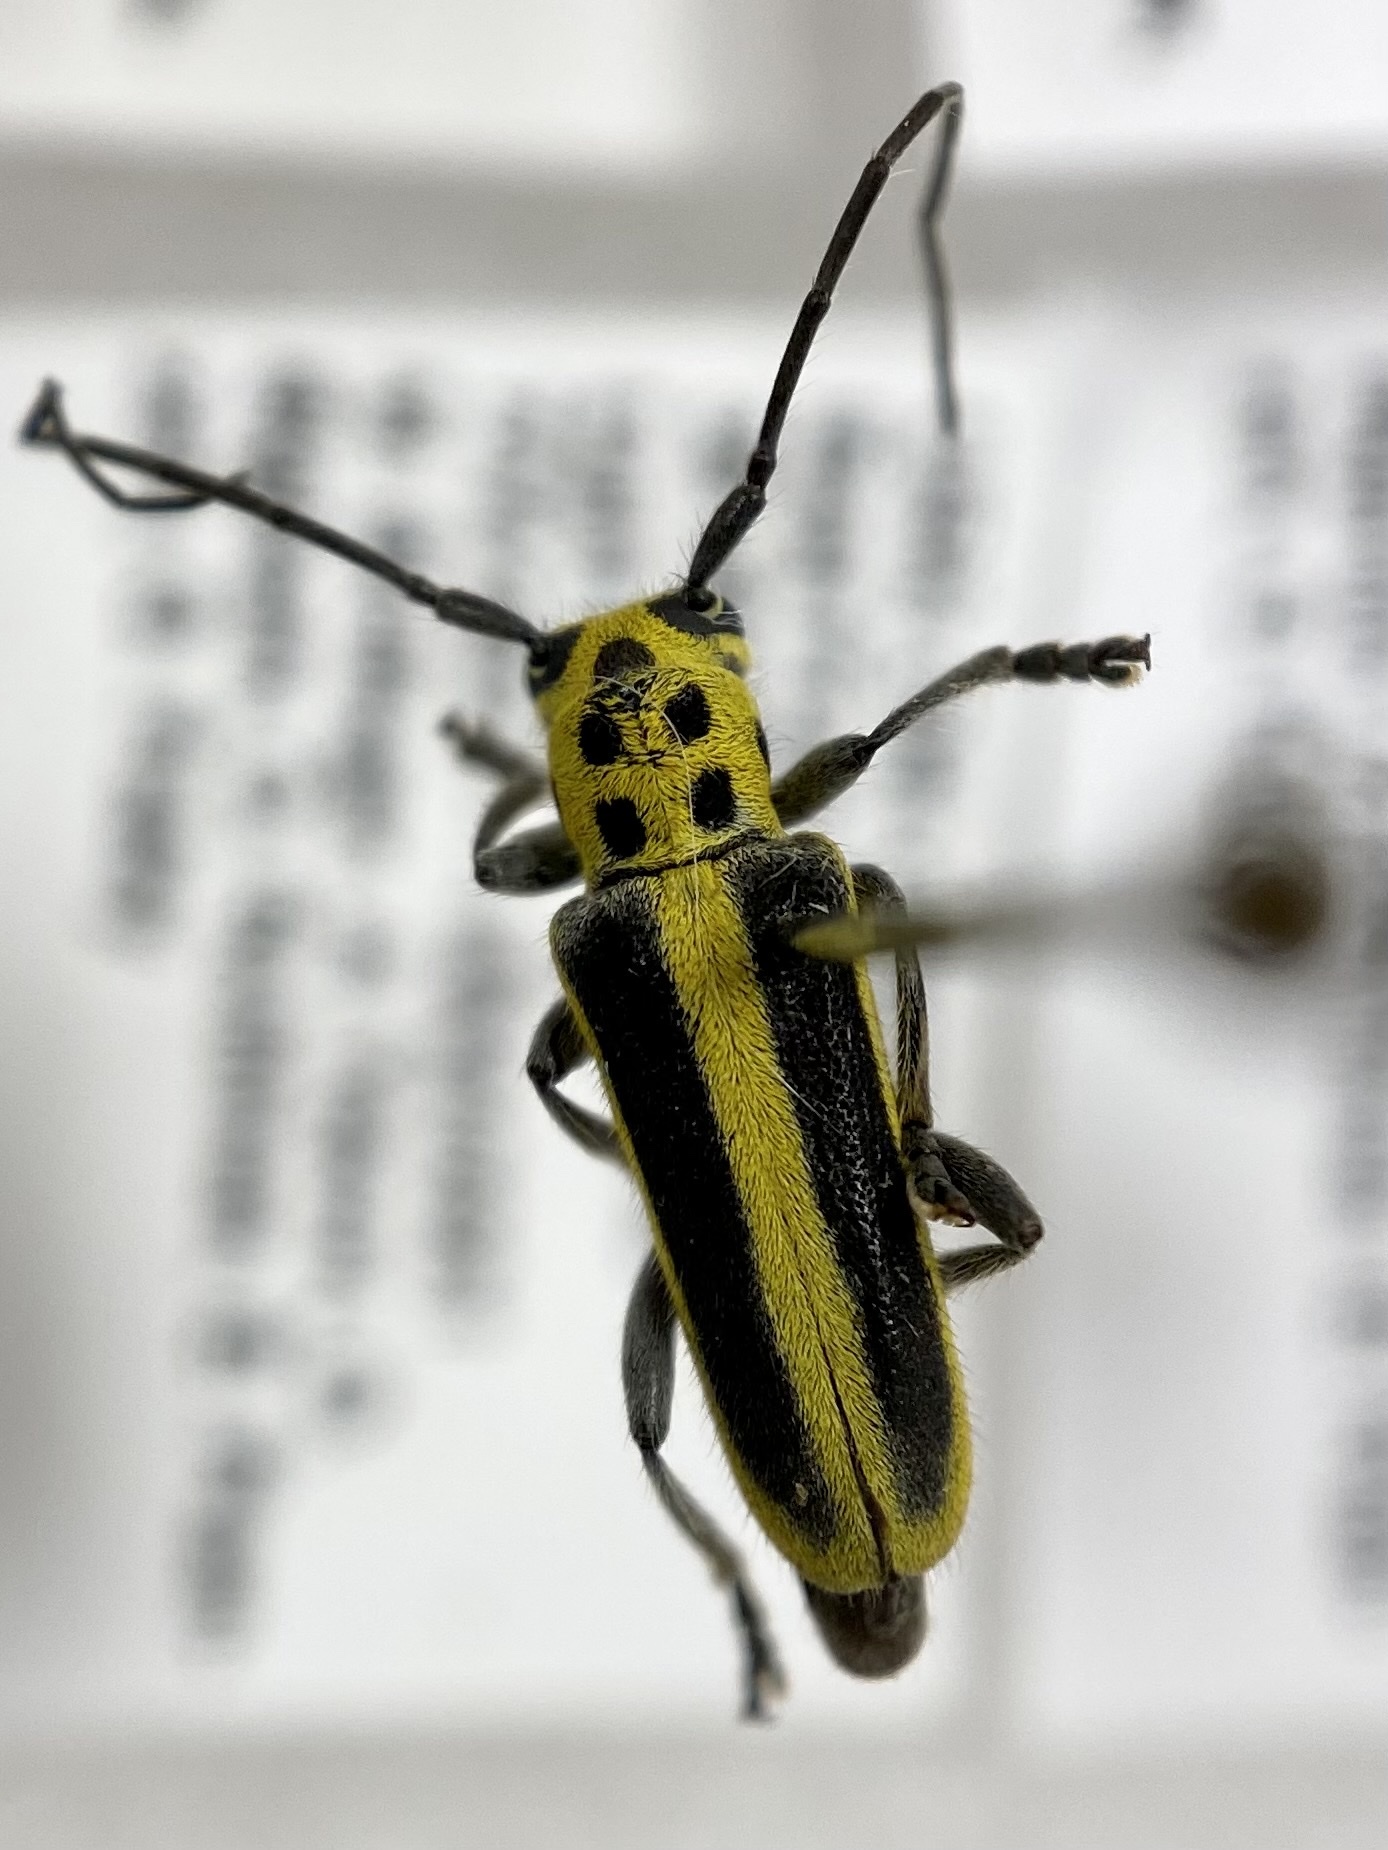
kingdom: Animalia
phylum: Arthropoda
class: Insecta
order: Coleoptera
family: Cerambycidae
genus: Saperda
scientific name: Saperda puncticollis
